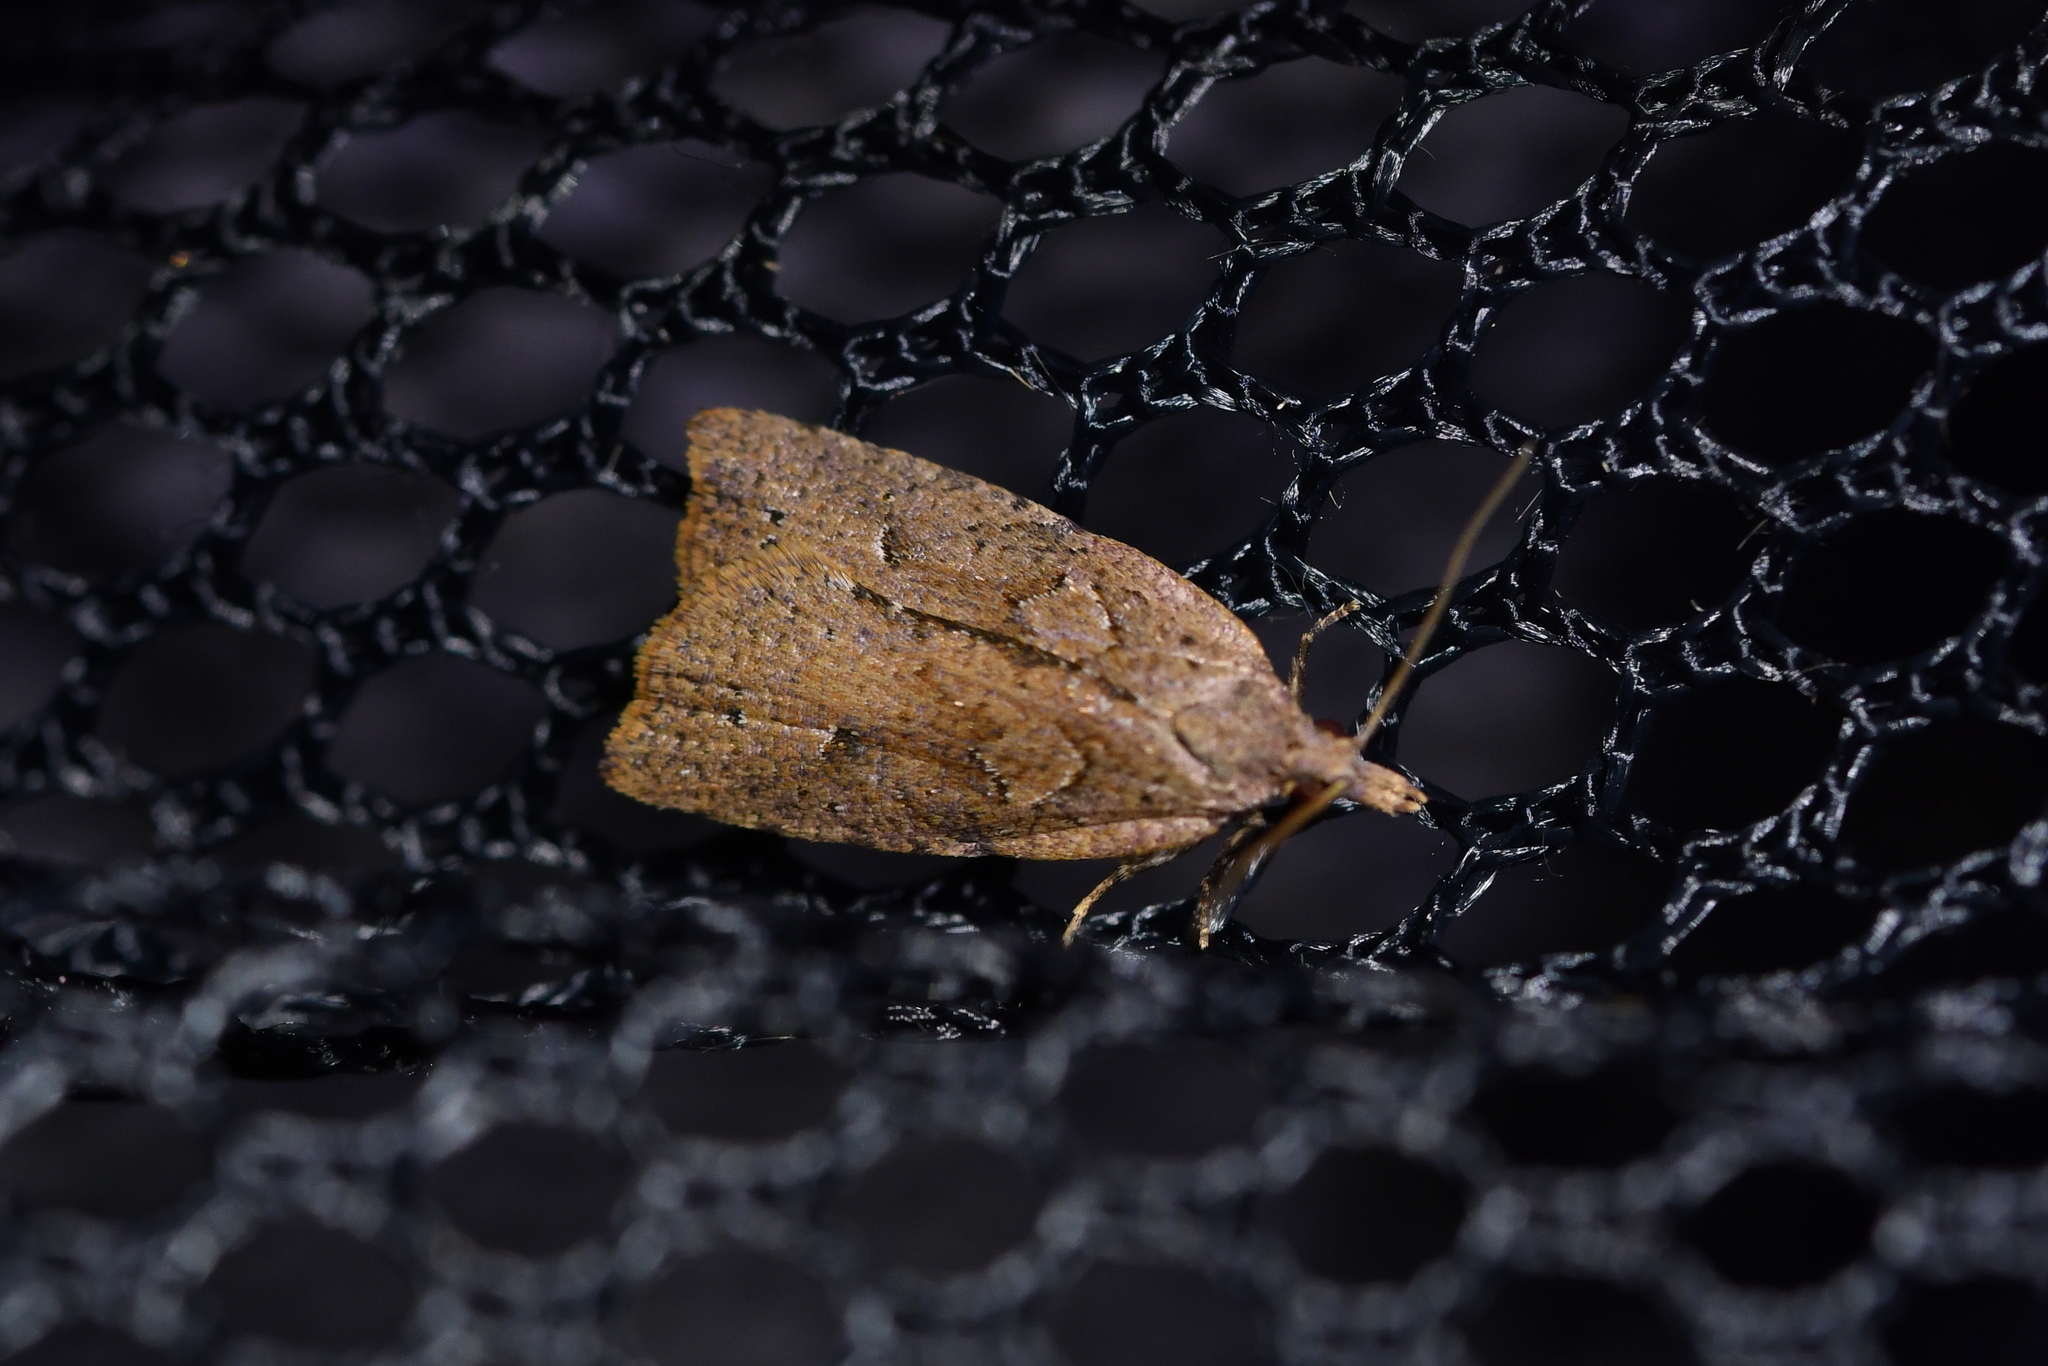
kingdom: Animalia
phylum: Arthropoda
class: Insecta
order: Lepidoptera
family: Tortricidae
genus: Planotortrix
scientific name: Planotortrix notophaea
